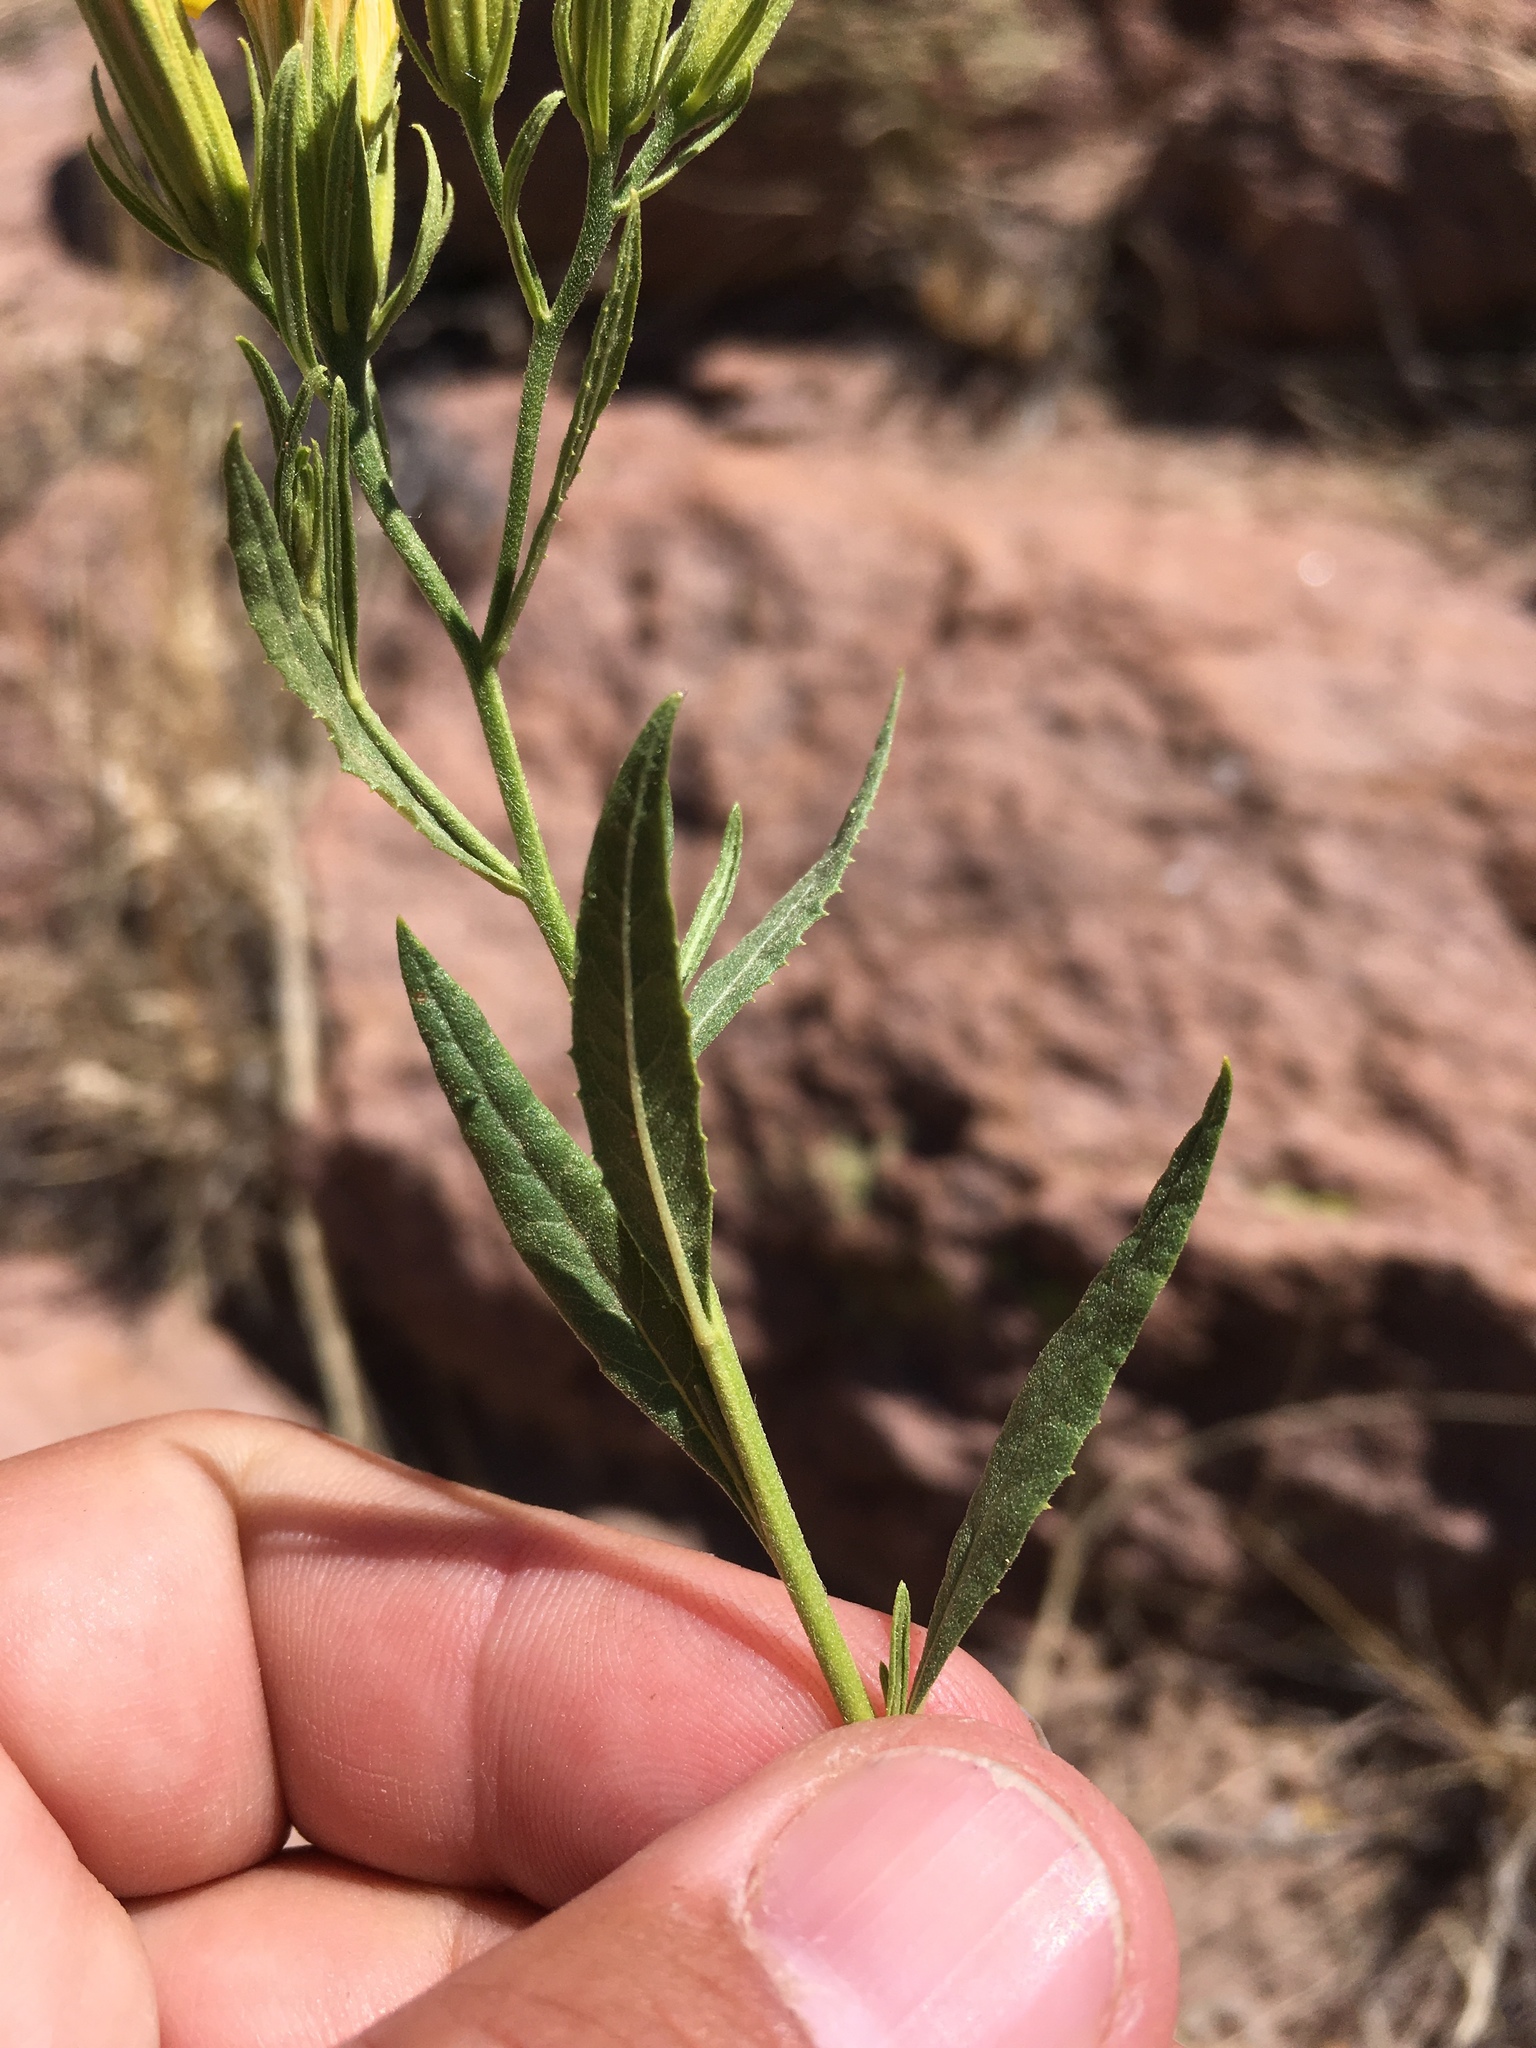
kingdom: Plantae
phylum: Tracheophyta
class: Magnoliopsida
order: Asterales
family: Asteraceae
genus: Trixis
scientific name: Trixis californica
